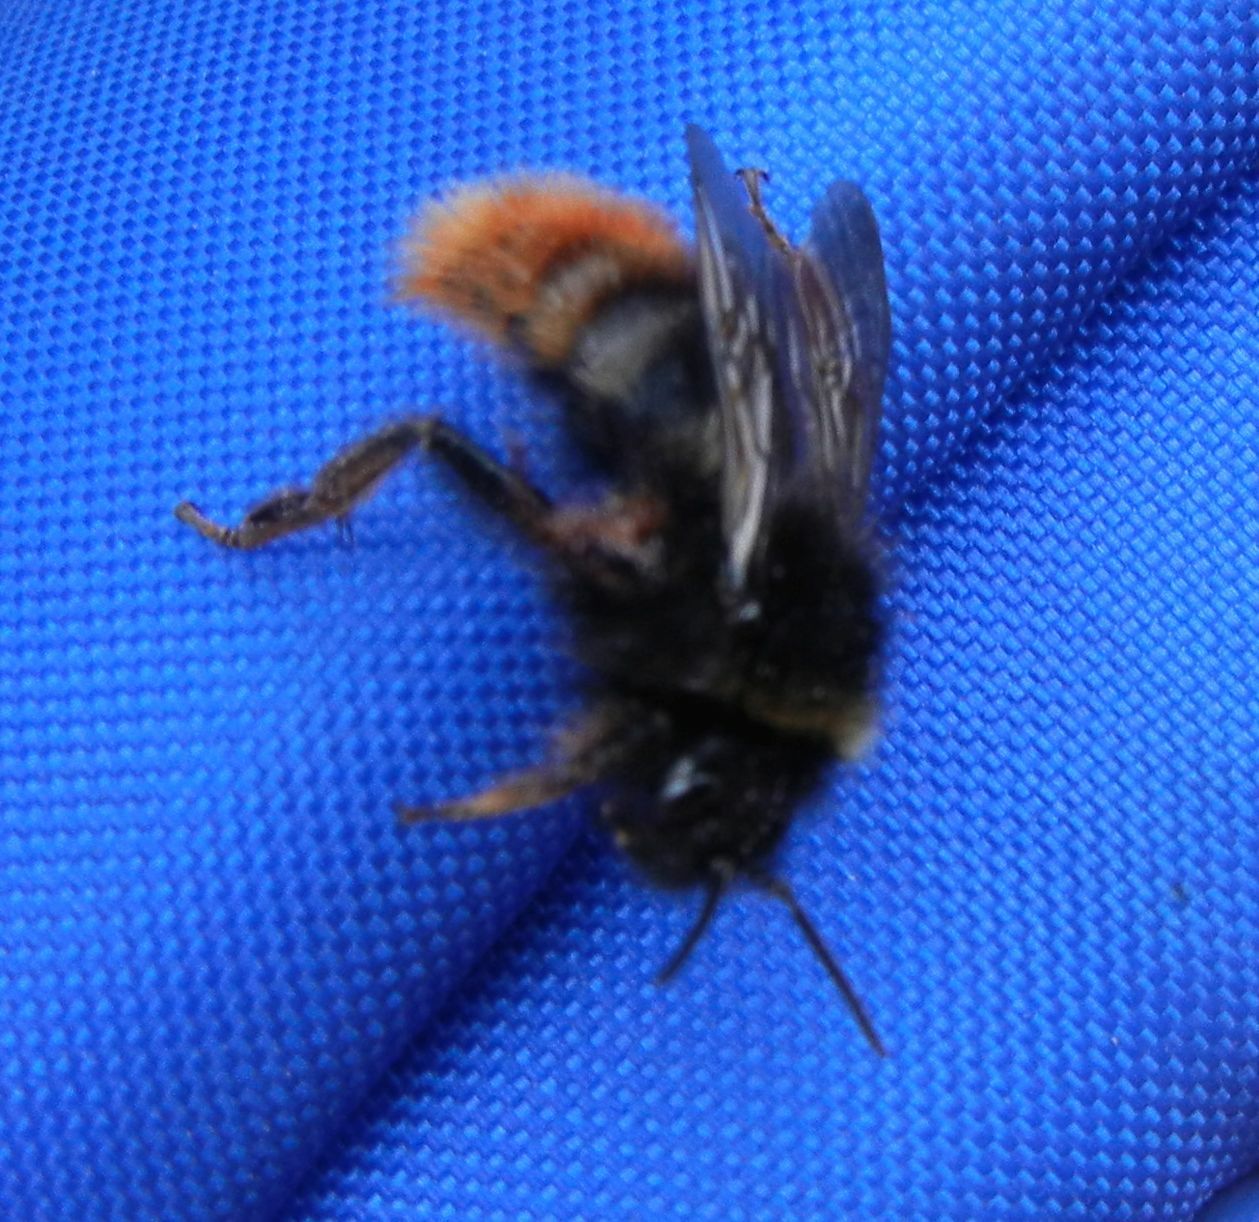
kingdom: Animalia
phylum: Arthropoda
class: Insecta
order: Hymenoptera
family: Apidae
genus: Bombus
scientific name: Bombus rupestris
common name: Hill cuckoo-bee
